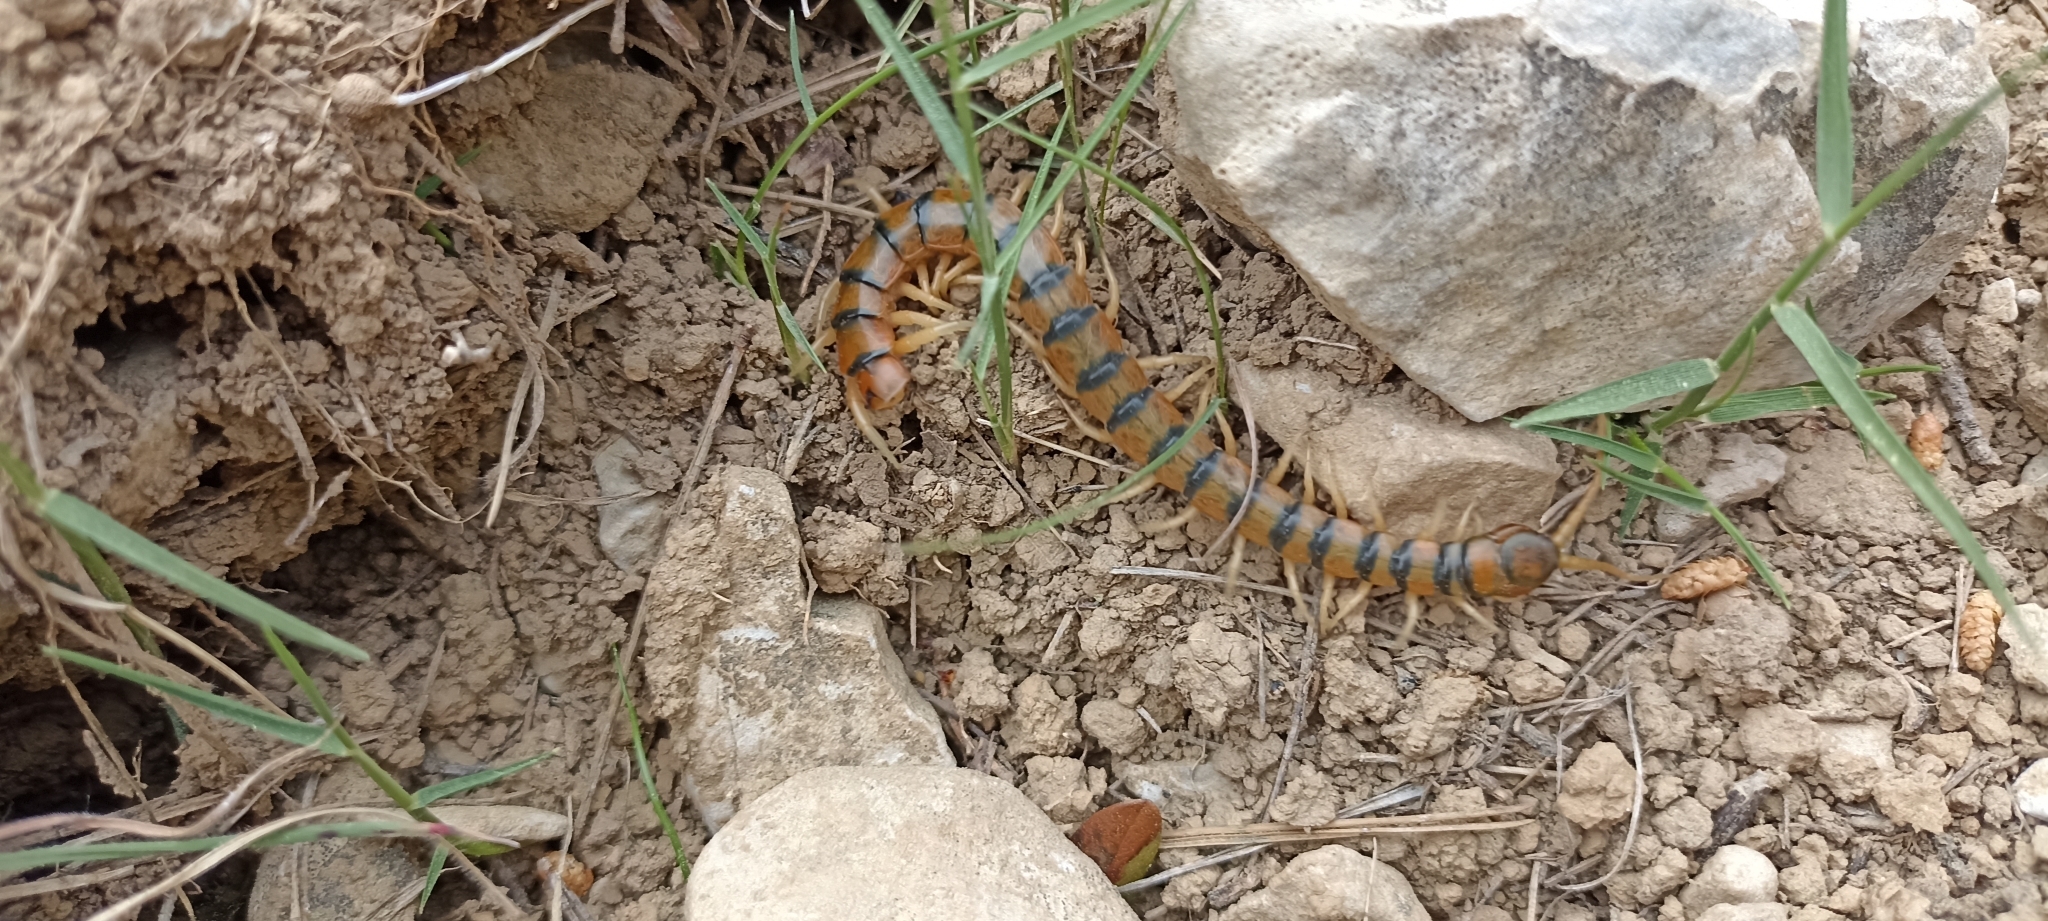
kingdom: Animalia
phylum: Arthropoda
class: Chilopoda
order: Scolopendromorpha
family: Scolopendridae
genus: Scolopendra
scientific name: Scolopendra cingulata
